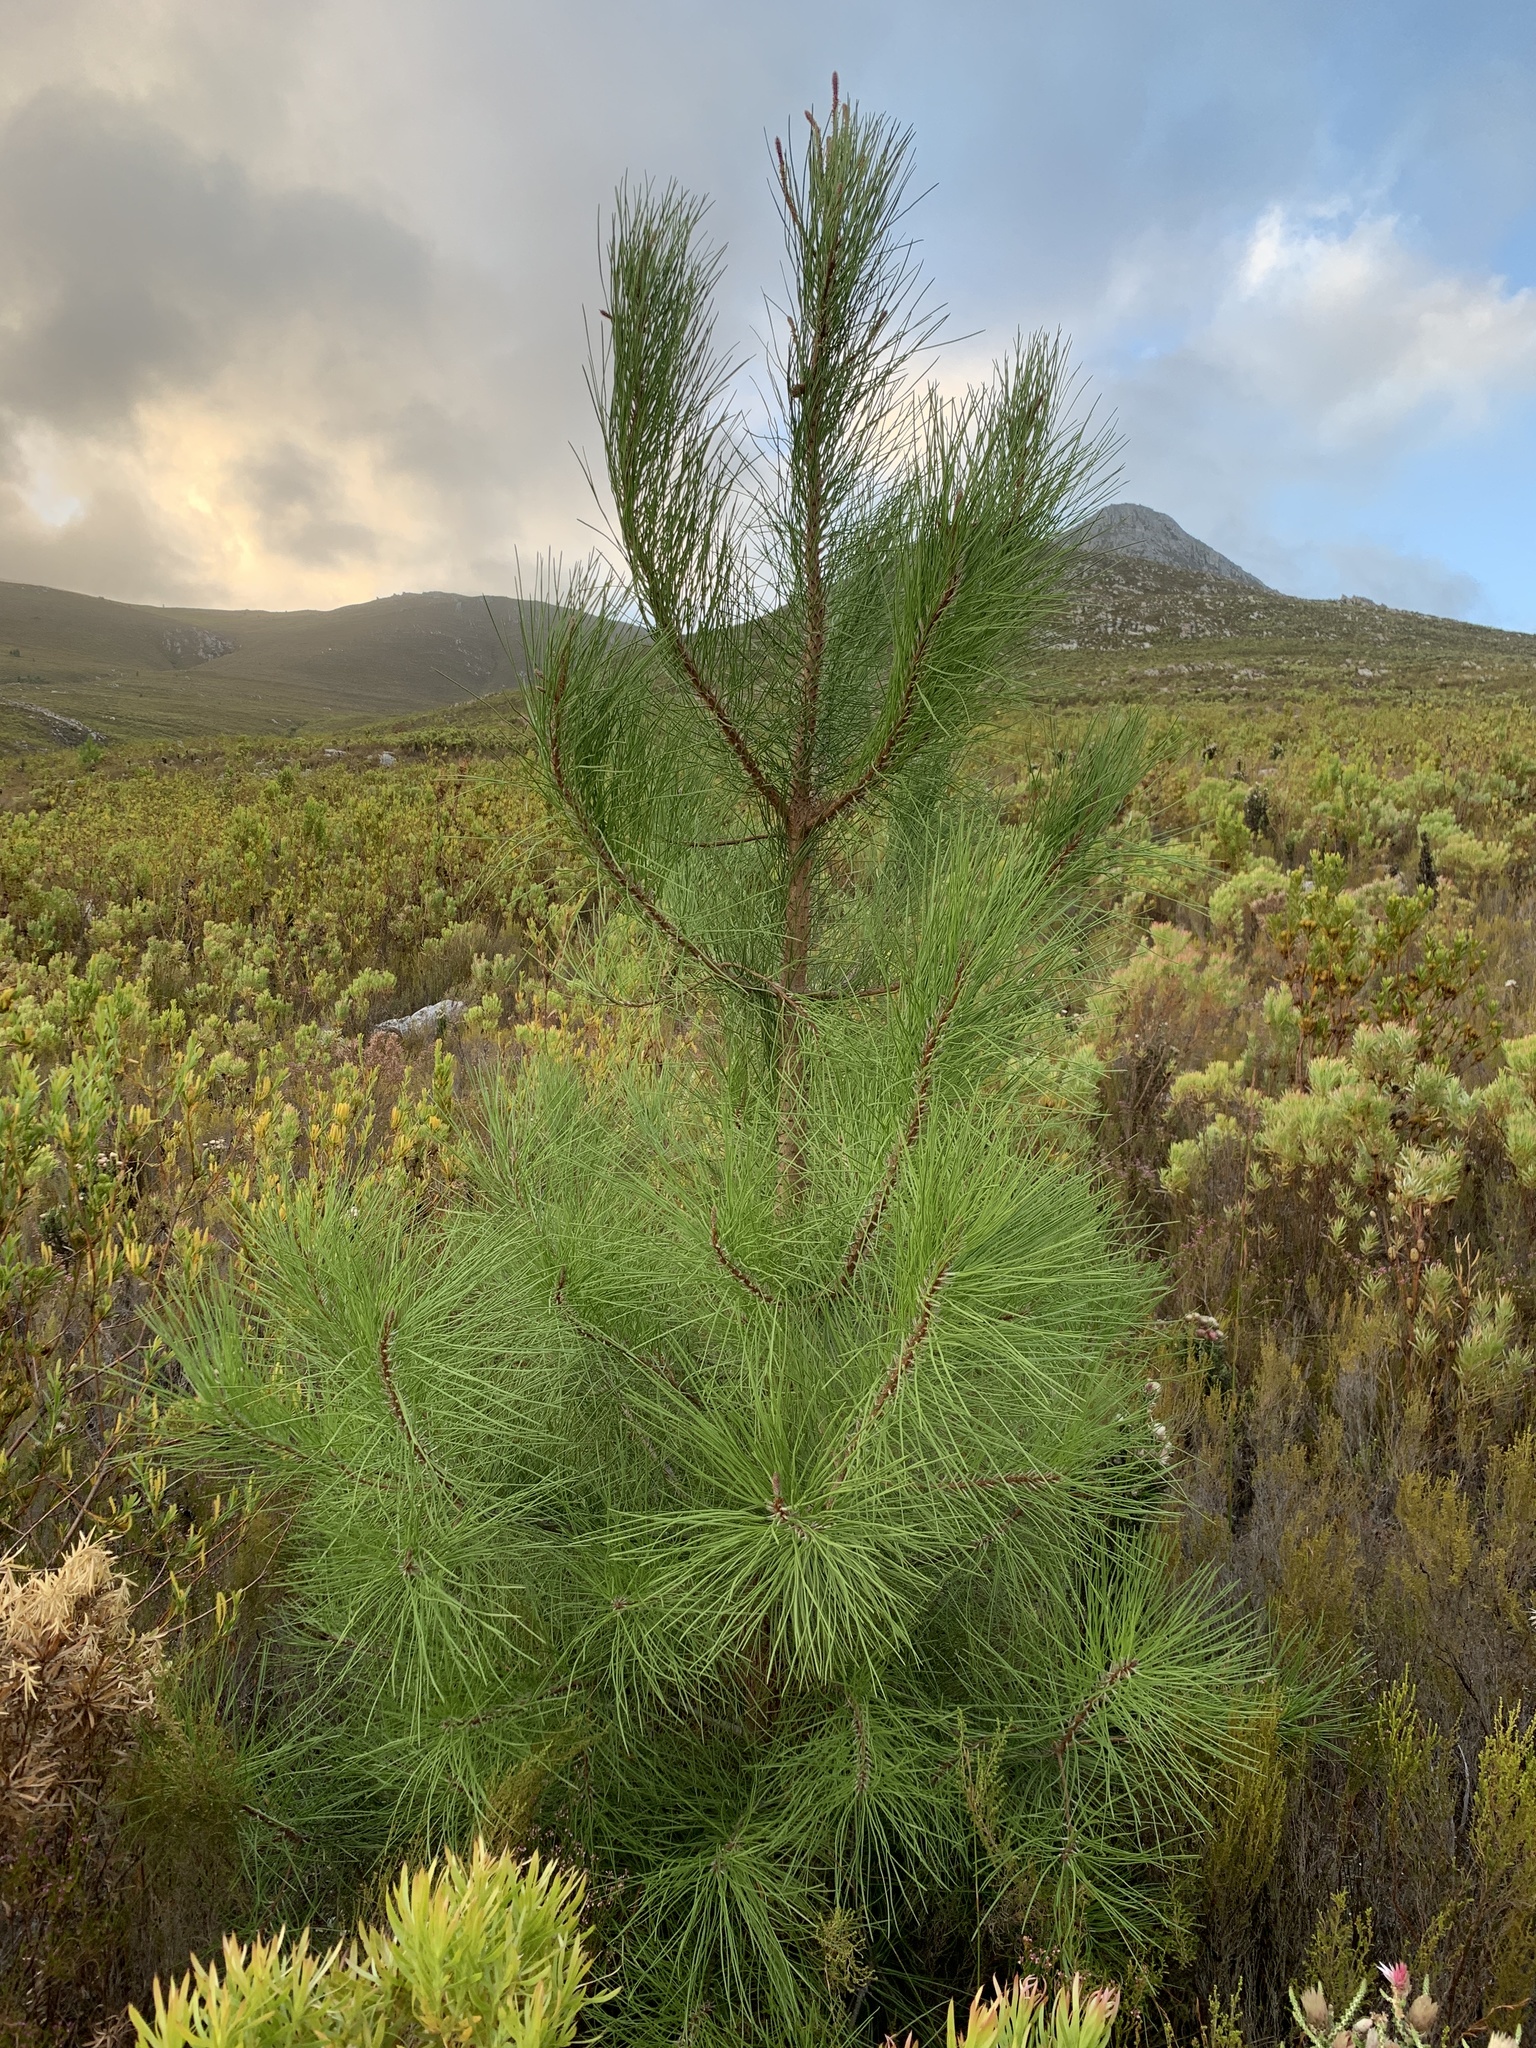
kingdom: Plantae
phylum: Tracheophyta
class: Pinopsida
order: Pinales
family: Pinaceae
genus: Pinus
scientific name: Pinus pinaster
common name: Maritime pine
